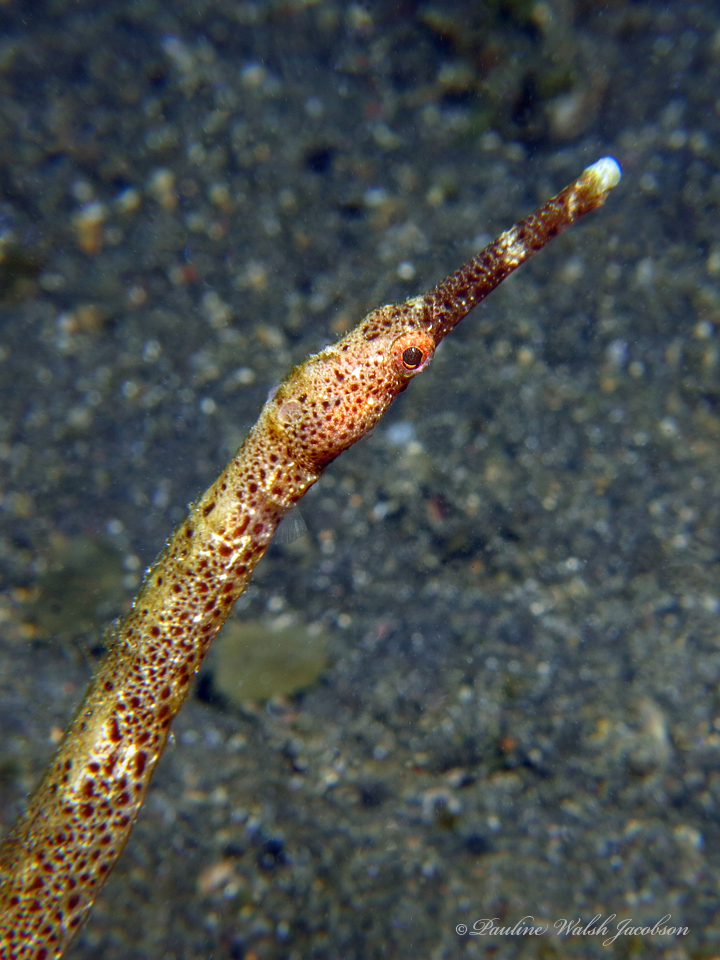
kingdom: Animalia
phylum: Chordata
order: Syngnathiformes
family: Syngnathidae
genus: Trachyrhamphus
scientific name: Trachyrhamphus bicoarctatus
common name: Double-ended pipefish
